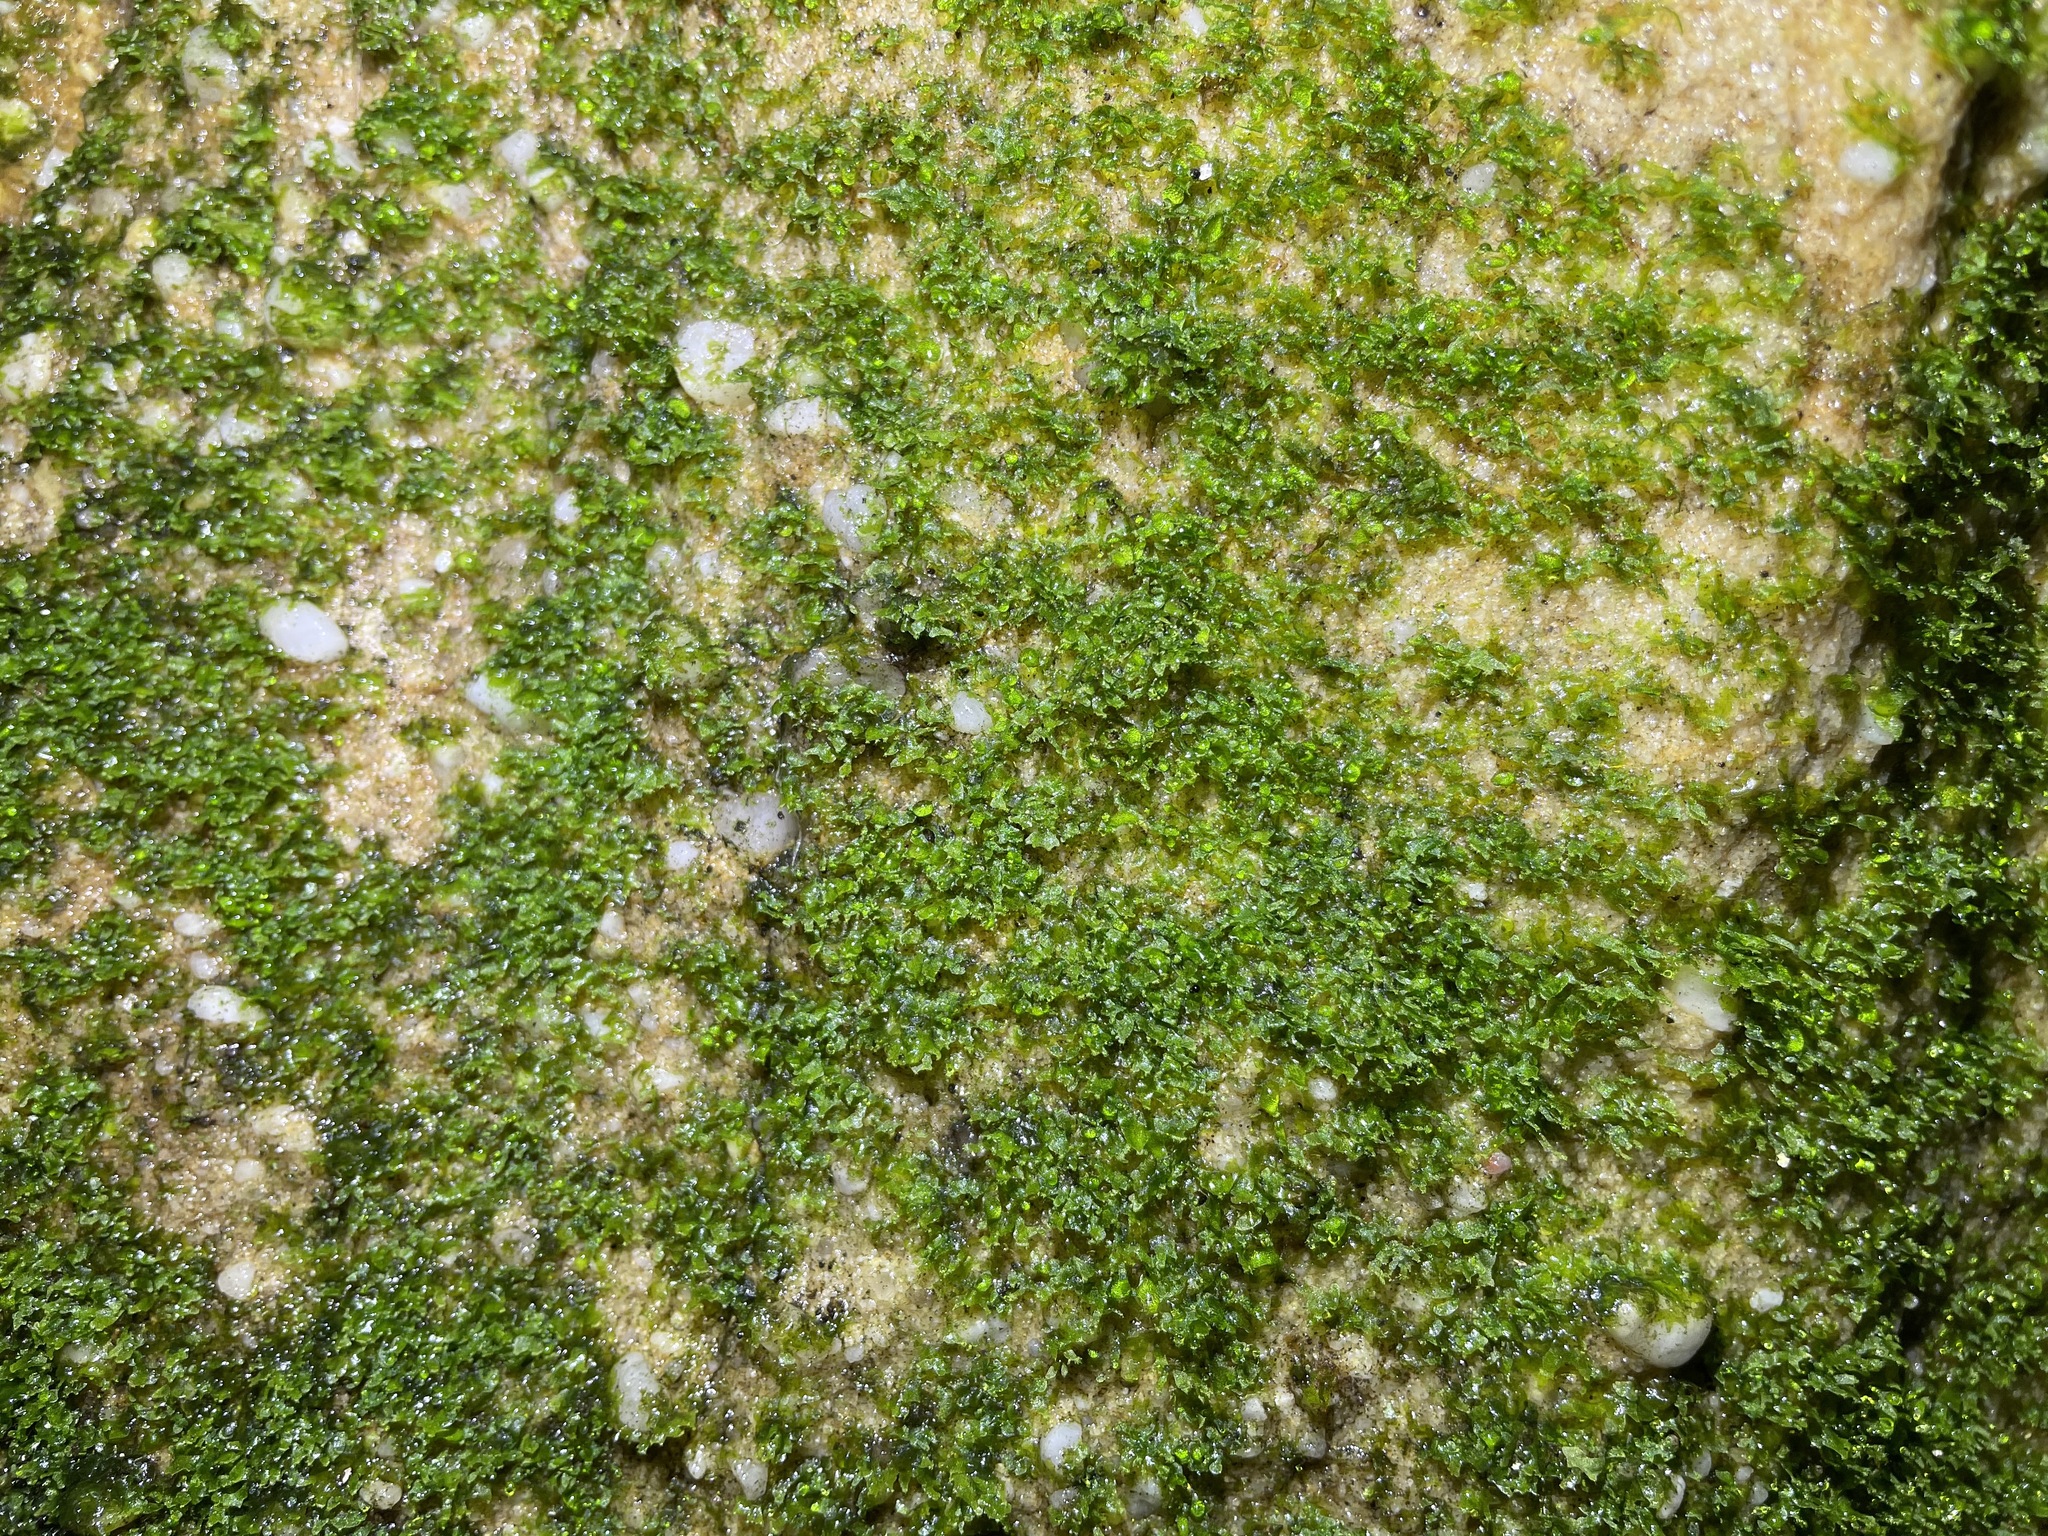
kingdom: Plantae
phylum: Tracheophyta
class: Polypodiopsida
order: Polypodiales
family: Pteridaceae
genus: Vittaria
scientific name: Vittaria appalachiana
